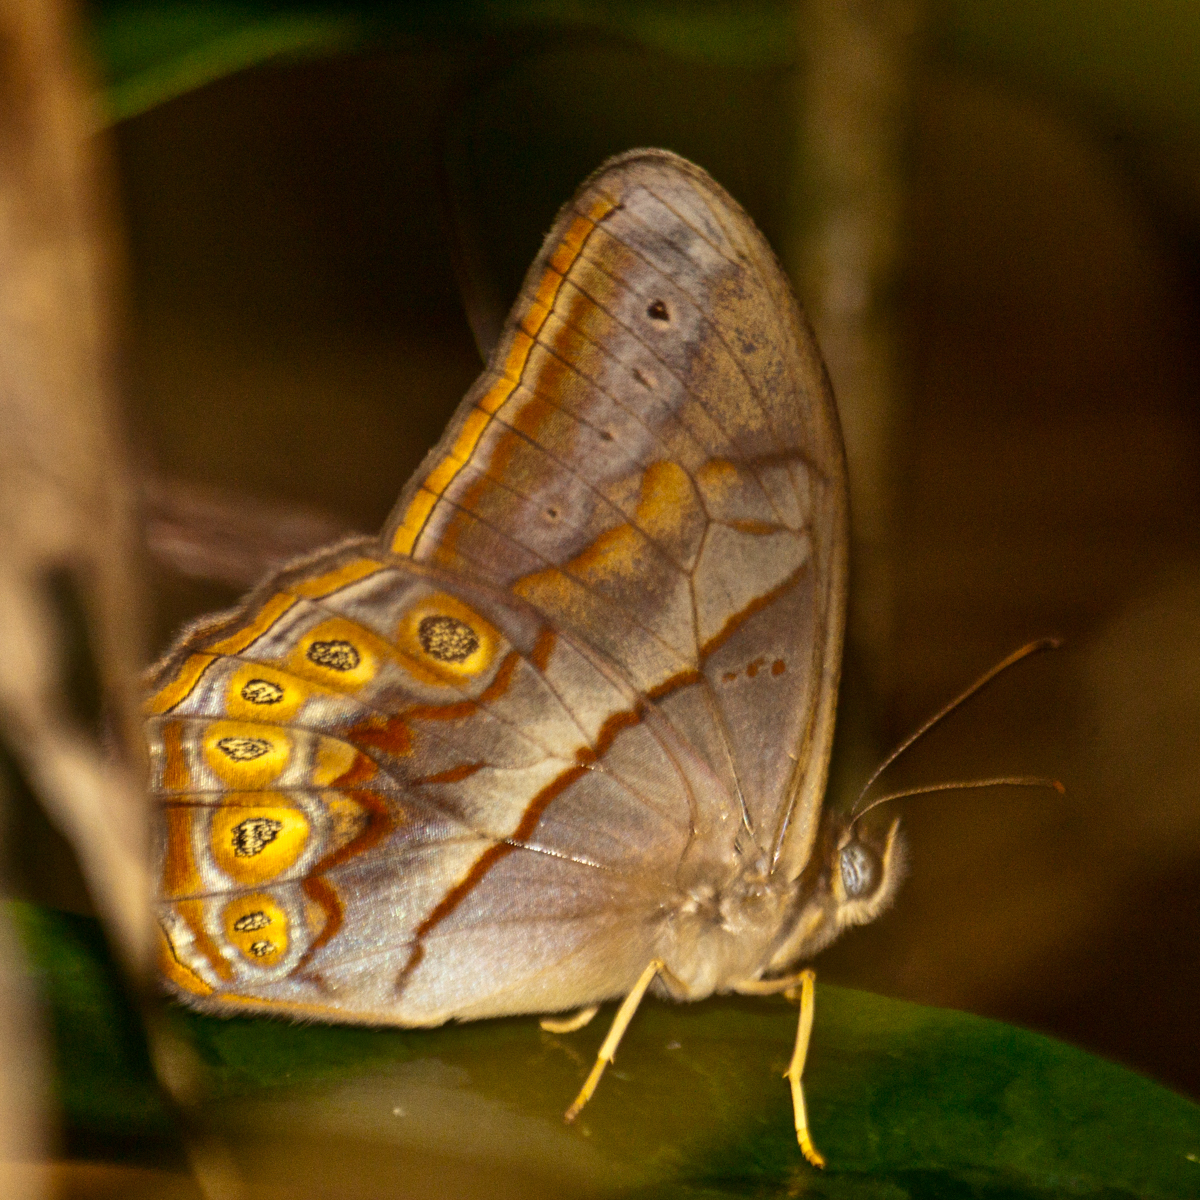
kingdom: Animalia
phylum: Arthropoda
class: Insecta
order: Lepidoptera
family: Nymphalidae
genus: Lethe
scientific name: Lethe minerva
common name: Banded red forester
